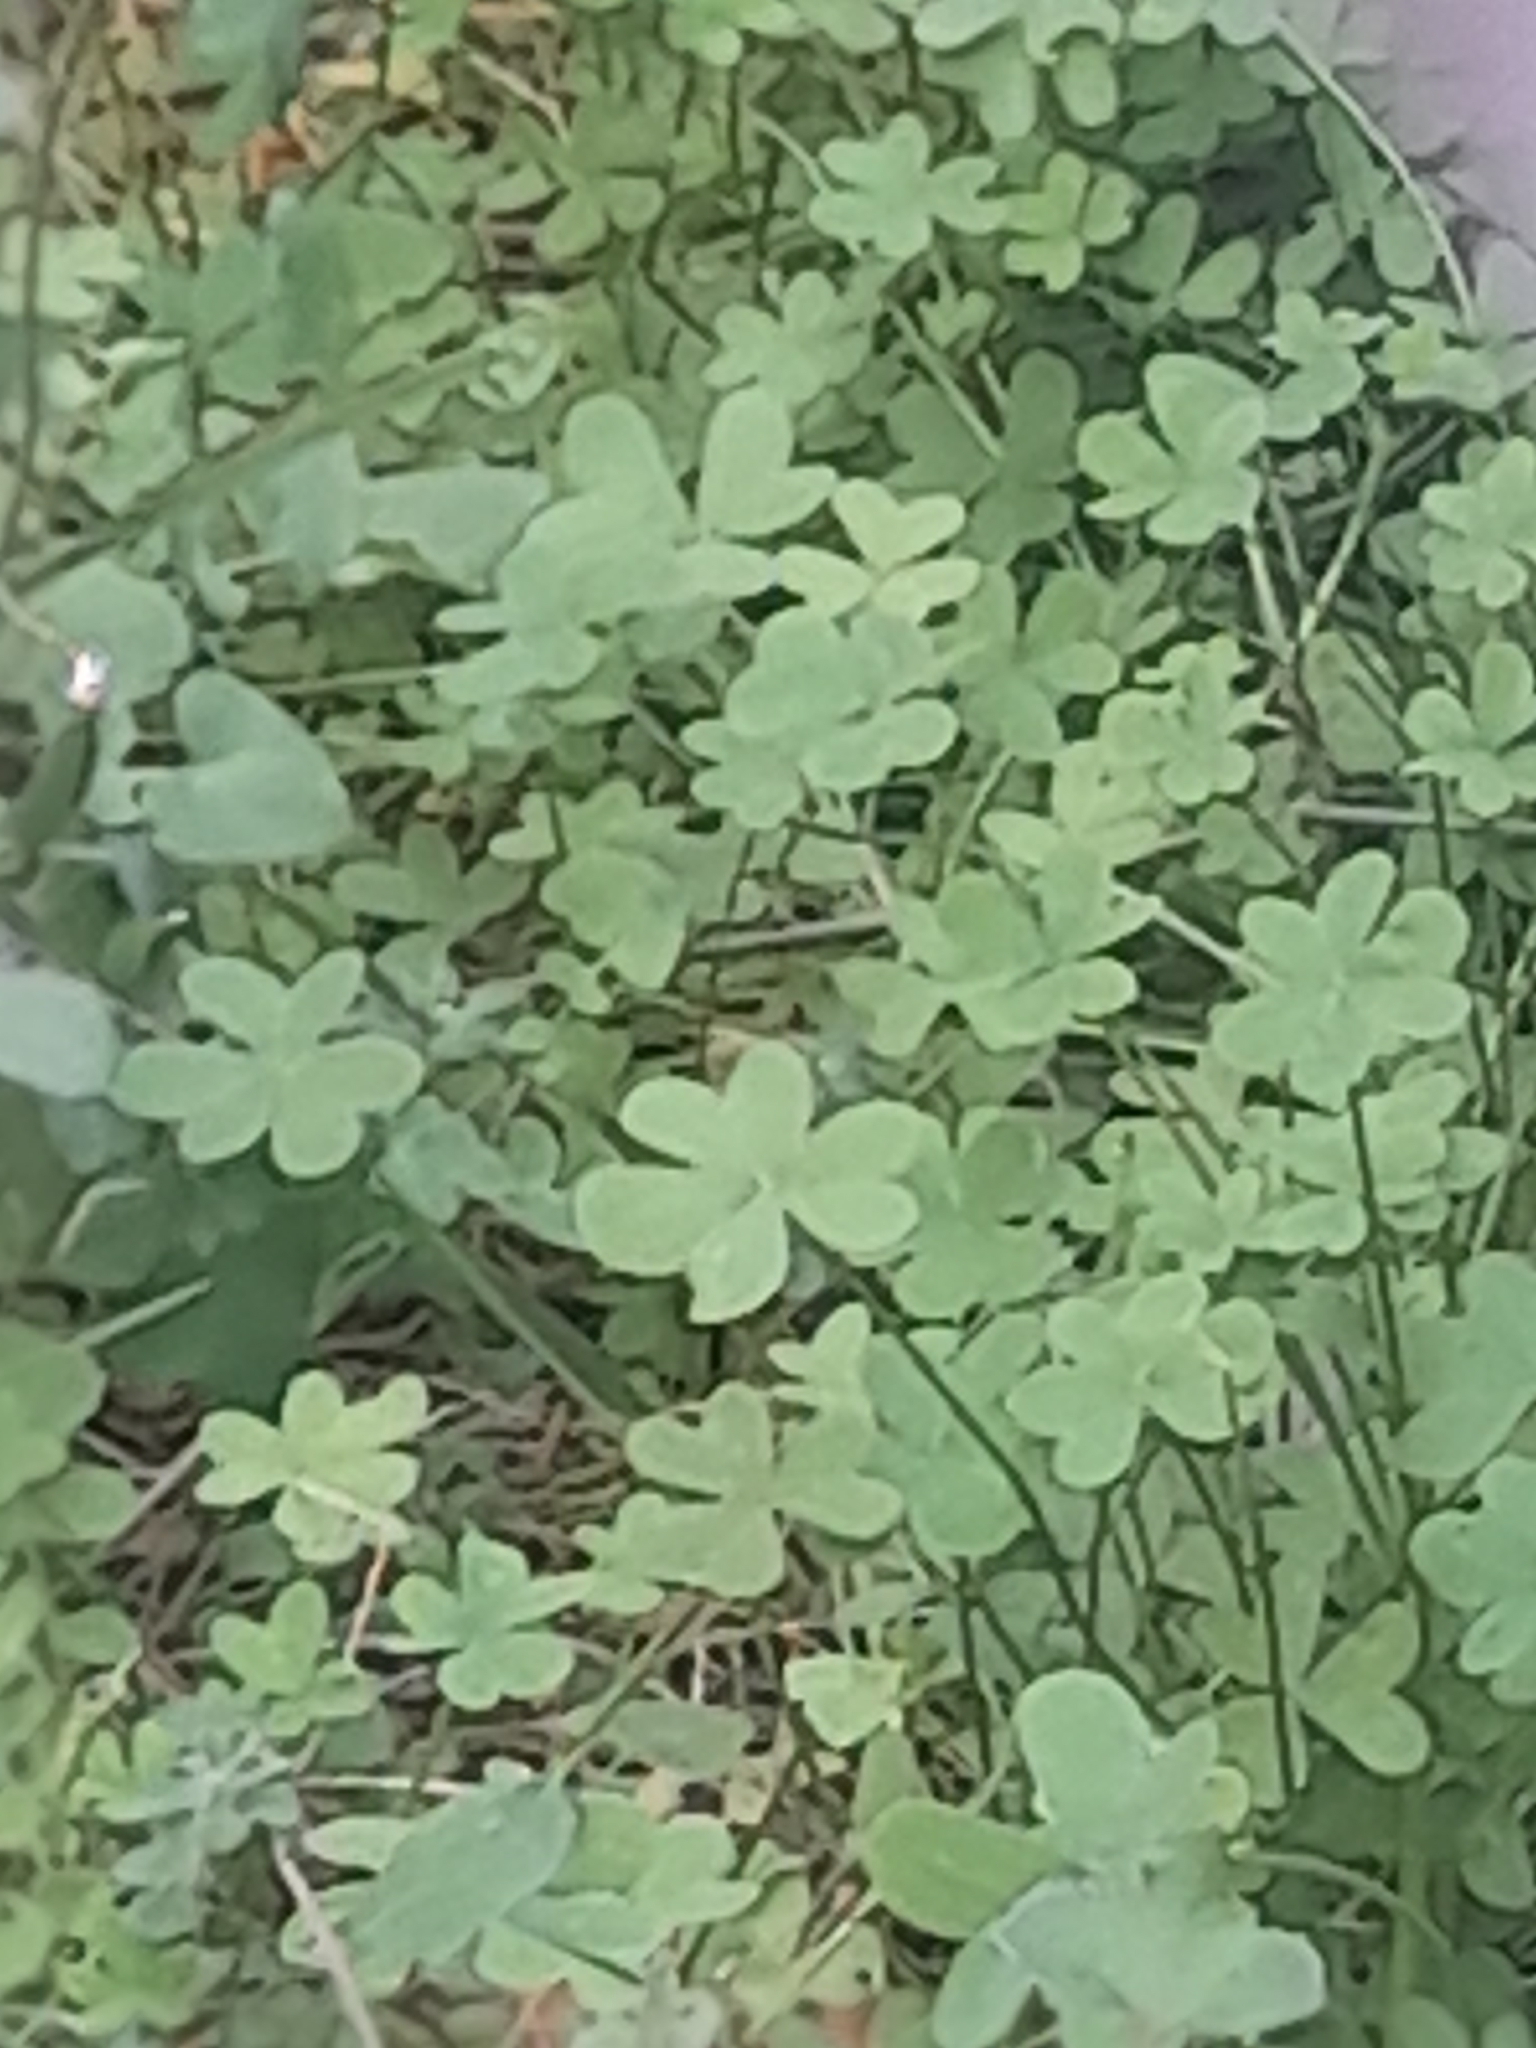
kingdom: Plantae
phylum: Tracheophyta
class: Magnoliopsida
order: Oxalidales
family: Oxalidaceae
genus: Oxalis
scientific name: Oxalis pes-caprae
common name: Bermuda-buttercup
